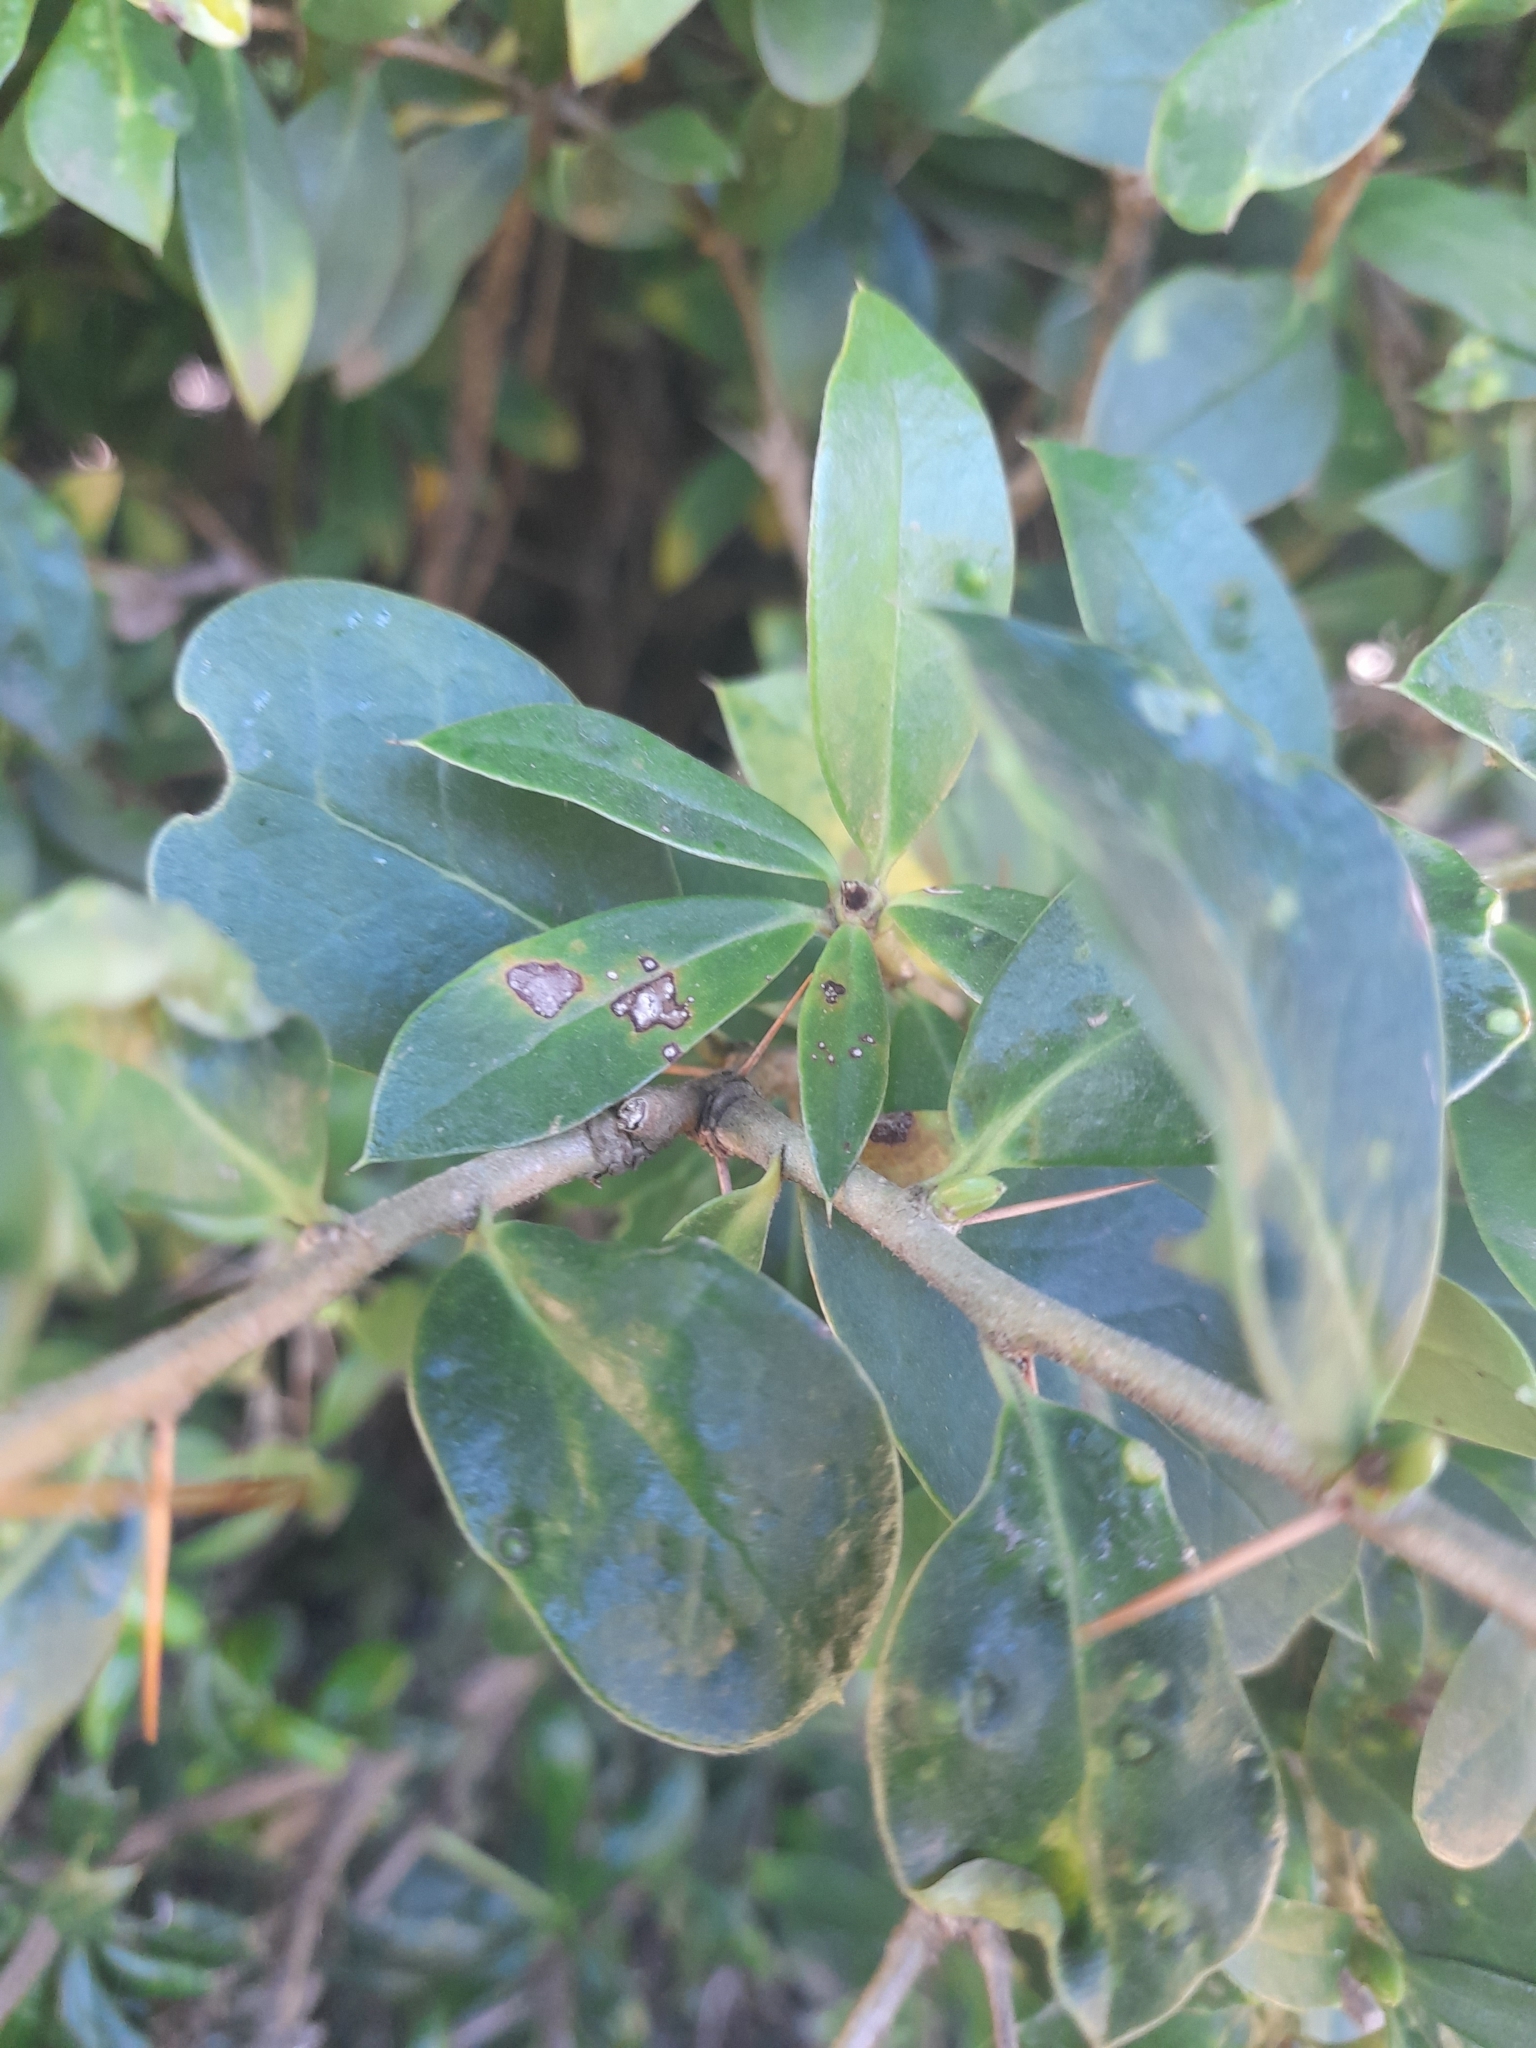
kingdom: Plantae
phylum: Tracheophyta
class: Magnoliopsida
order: Asterales
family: Asteraceae
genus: Archidasyphyllum
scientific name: Archidasyphyllum diacanthoides
